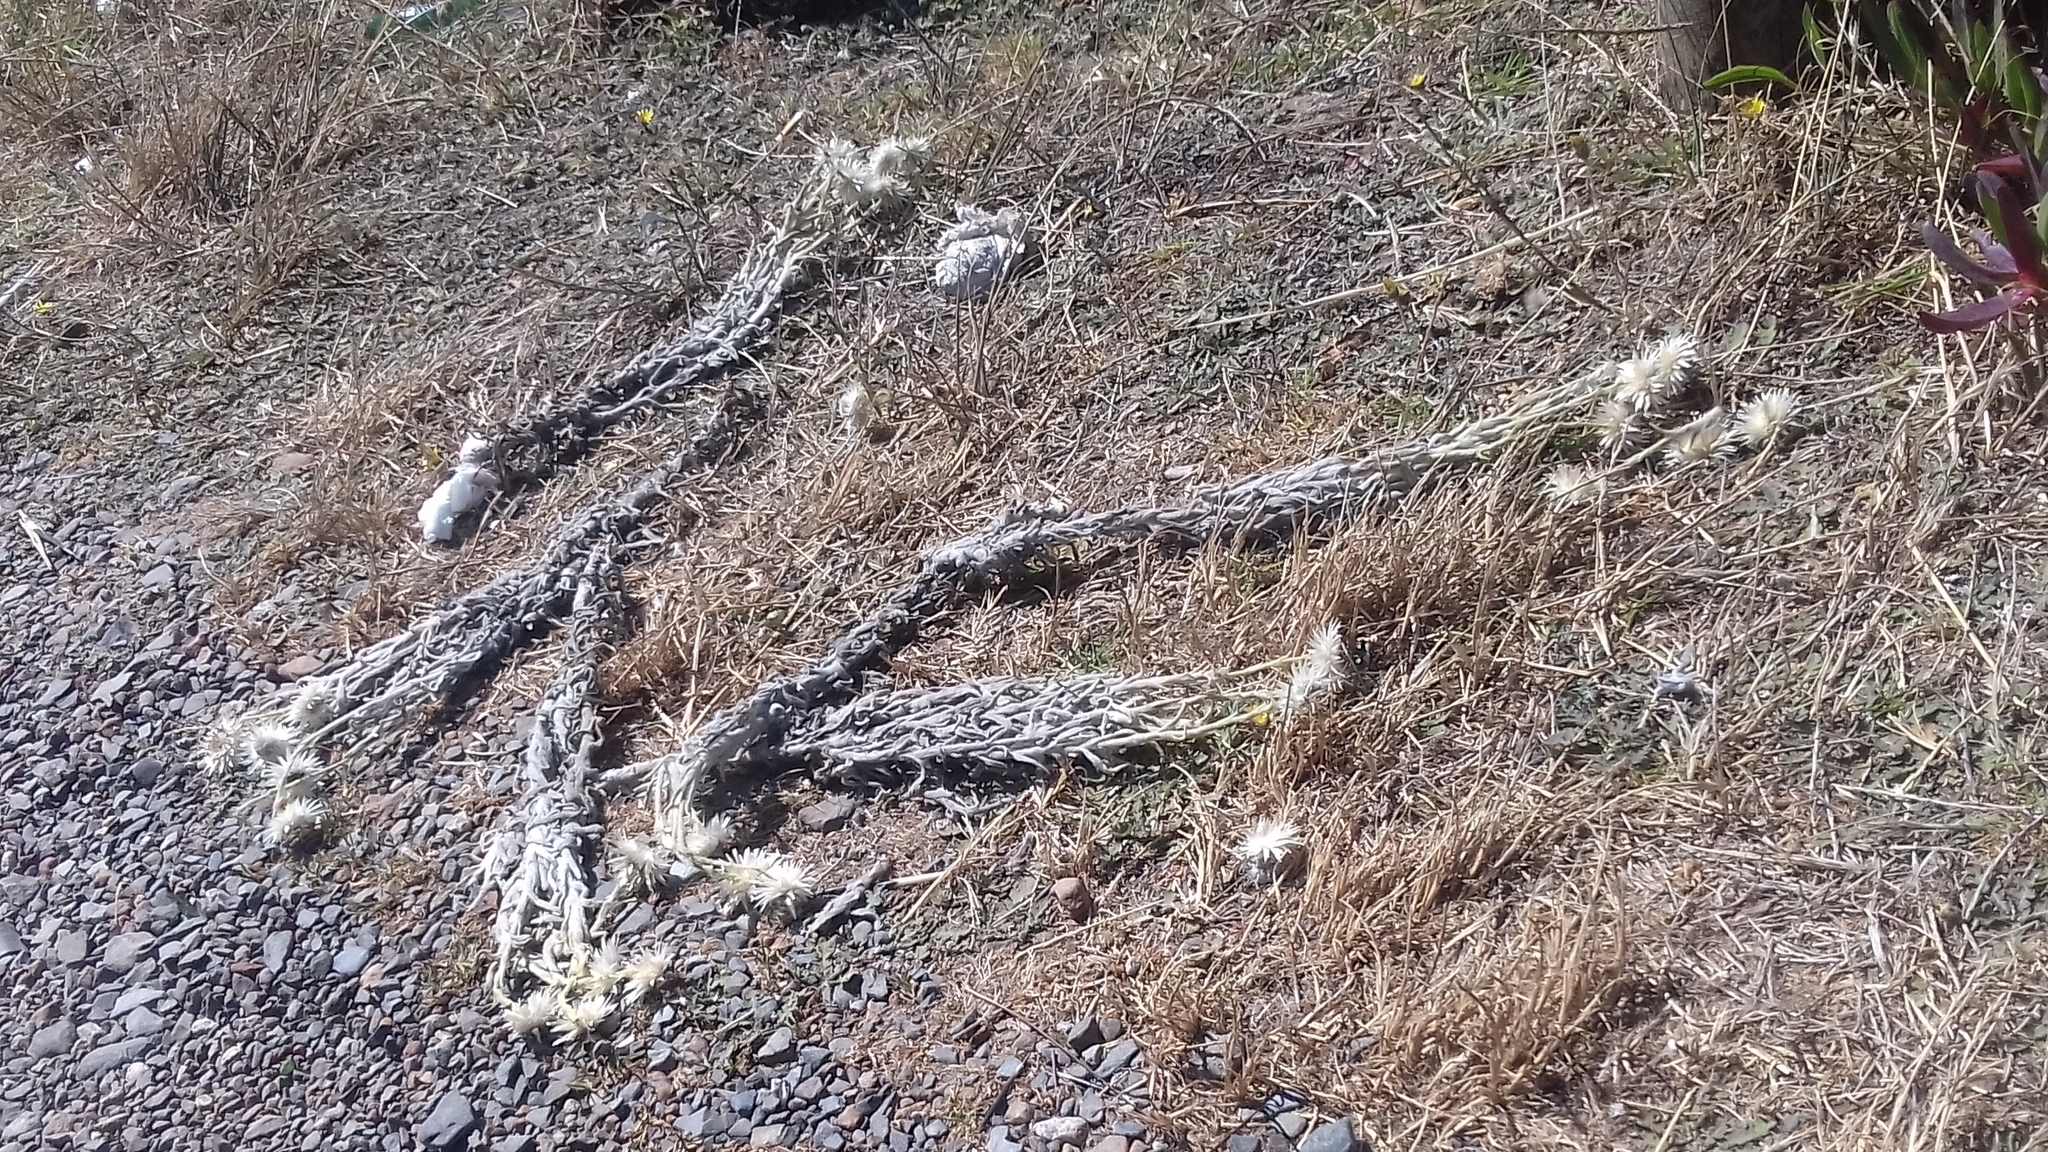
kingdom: Plantae
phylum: Tracheophyta
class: Magnoliopsida
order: Asterales
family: Asteraceae
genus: Syncarpha
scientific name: Syncarpha vestita
